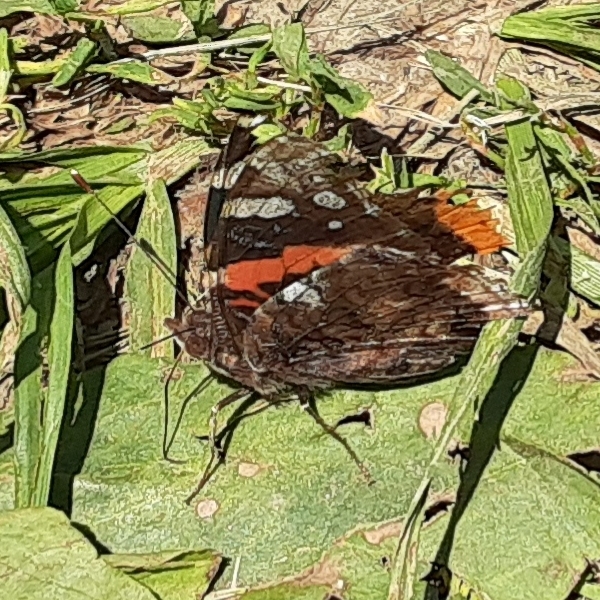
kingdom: Animalia
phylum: Arthropoda
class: Insecta
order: Lepidoptera
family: Nymphalidae
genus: Vanessa
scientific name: Vanessa atalanta
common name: Red admiral
